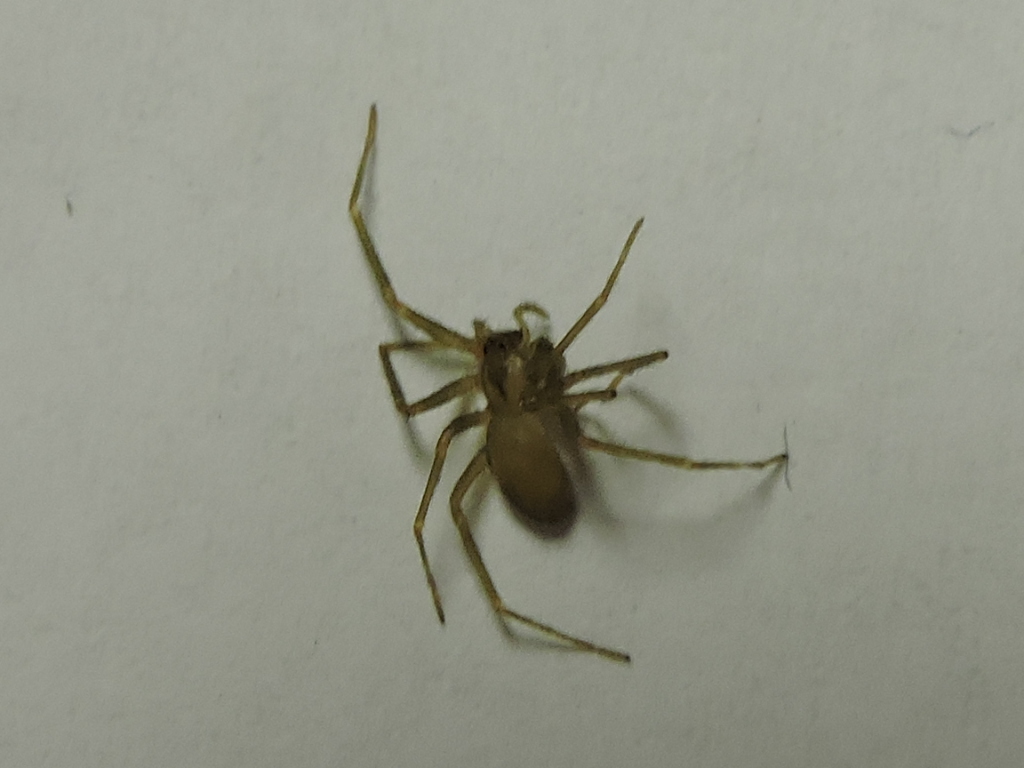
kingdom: Animalia
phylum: Arthropoda
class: Arachnida
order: Araneae
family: Sicariidae
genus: Loxosceles
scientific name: Loxosceles reclusa
